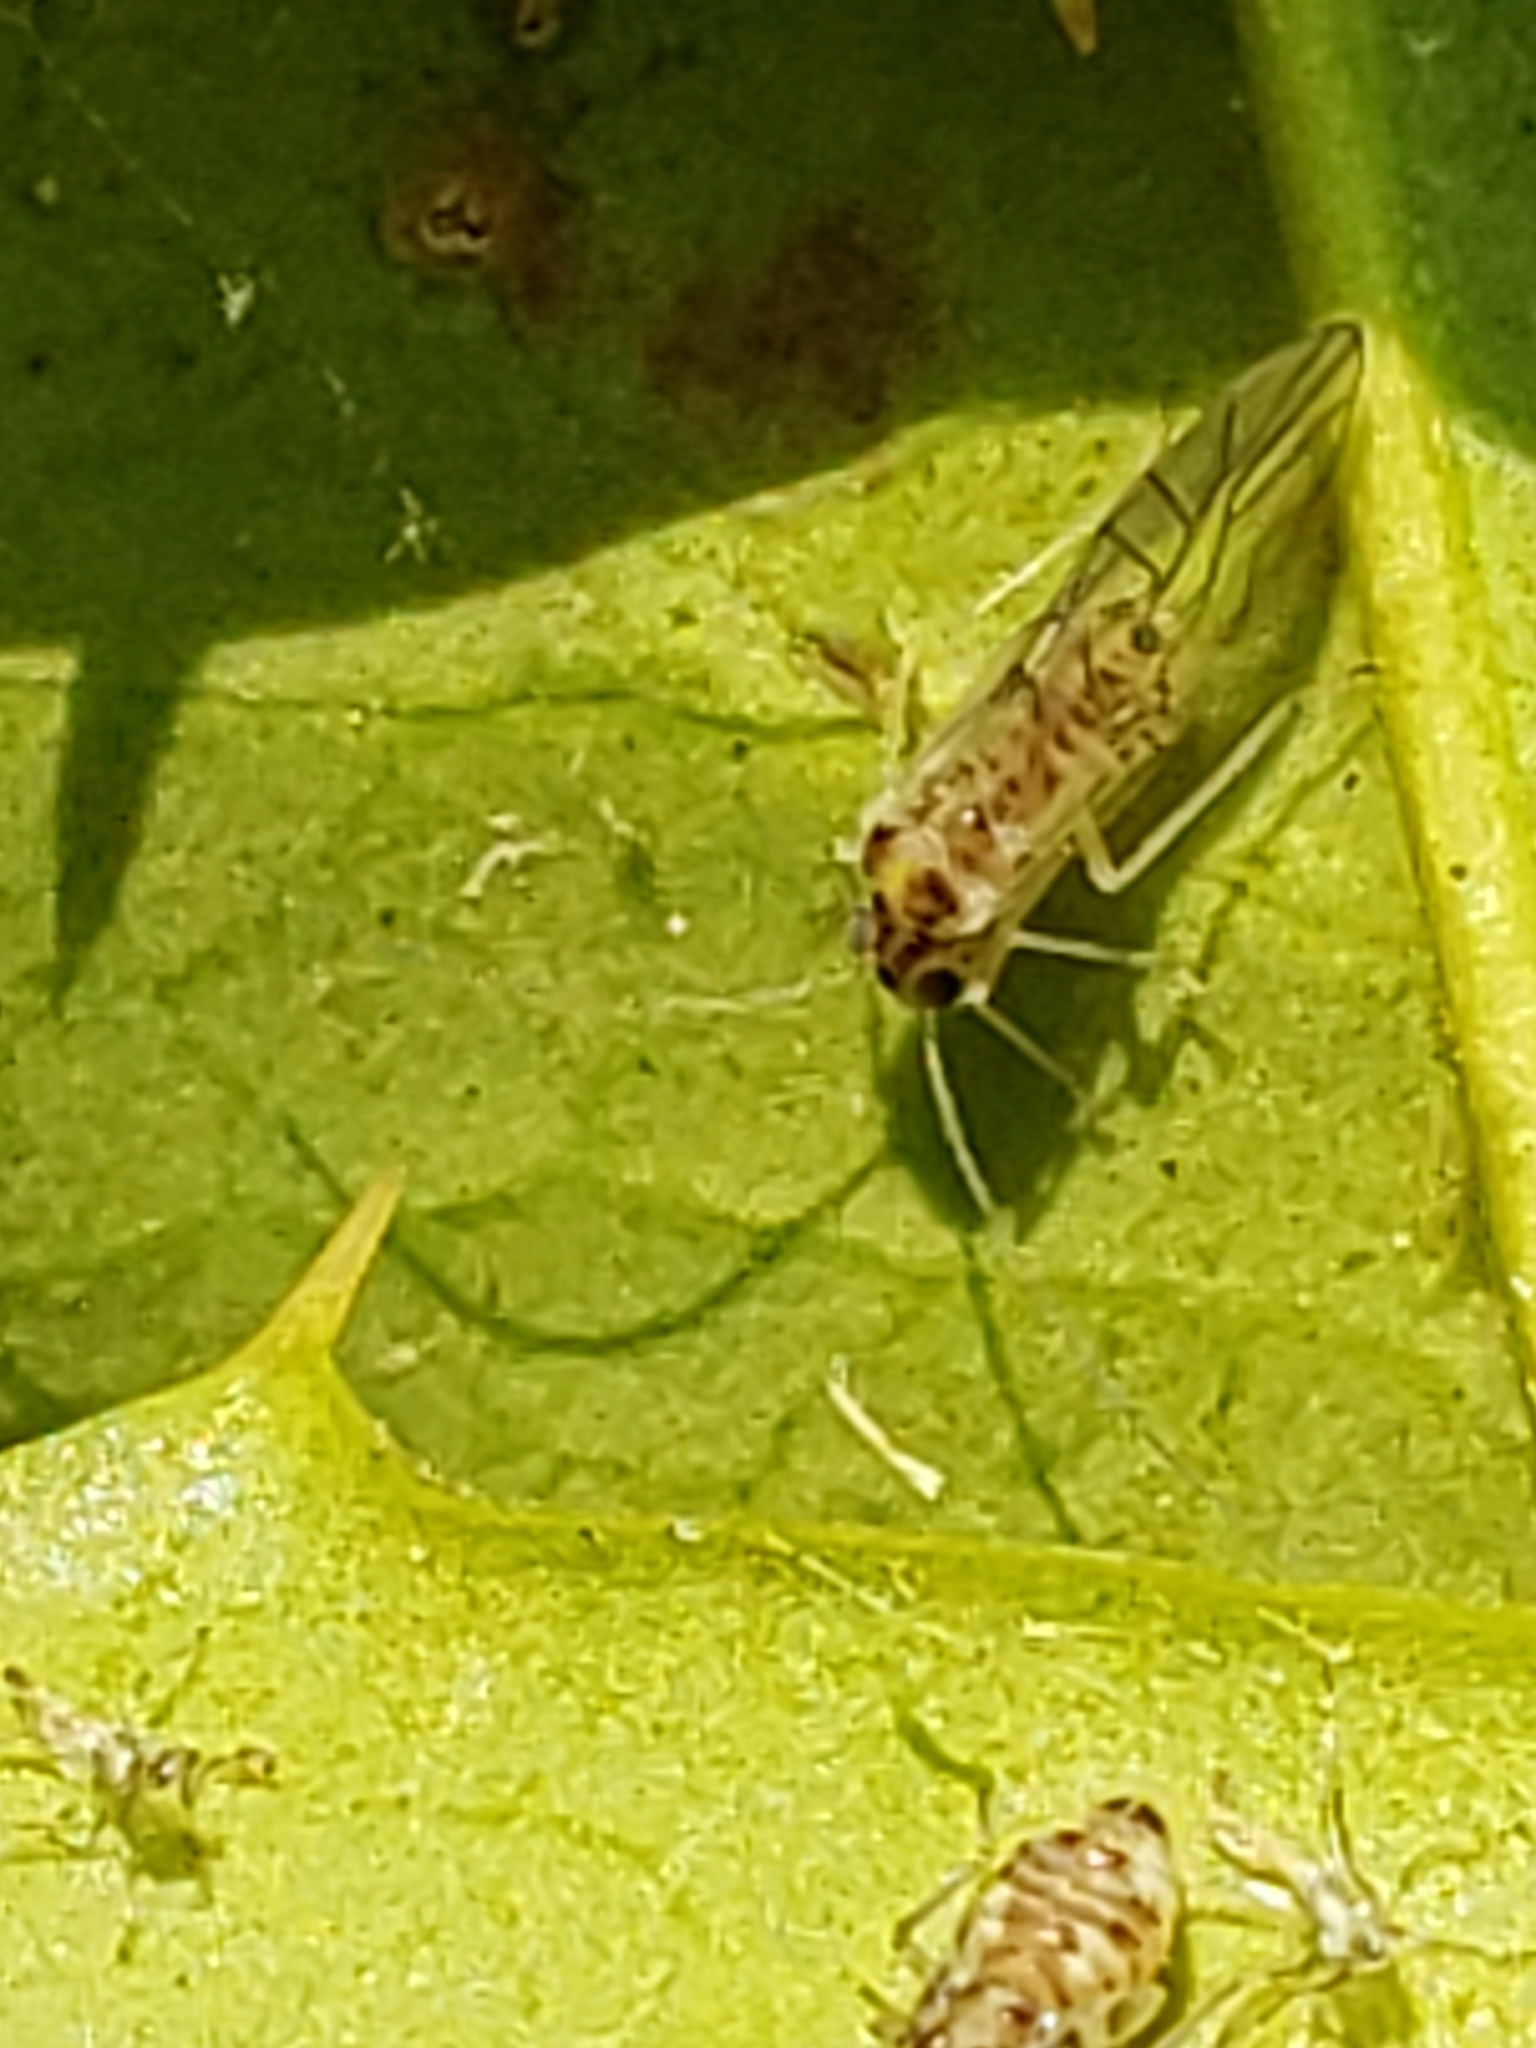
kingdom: Animalia
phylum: Arthropoda
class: Insecta
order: Psocodea
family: Dasydemellidae
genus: Teliapsocus
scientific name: Teliapsocus conterminus
